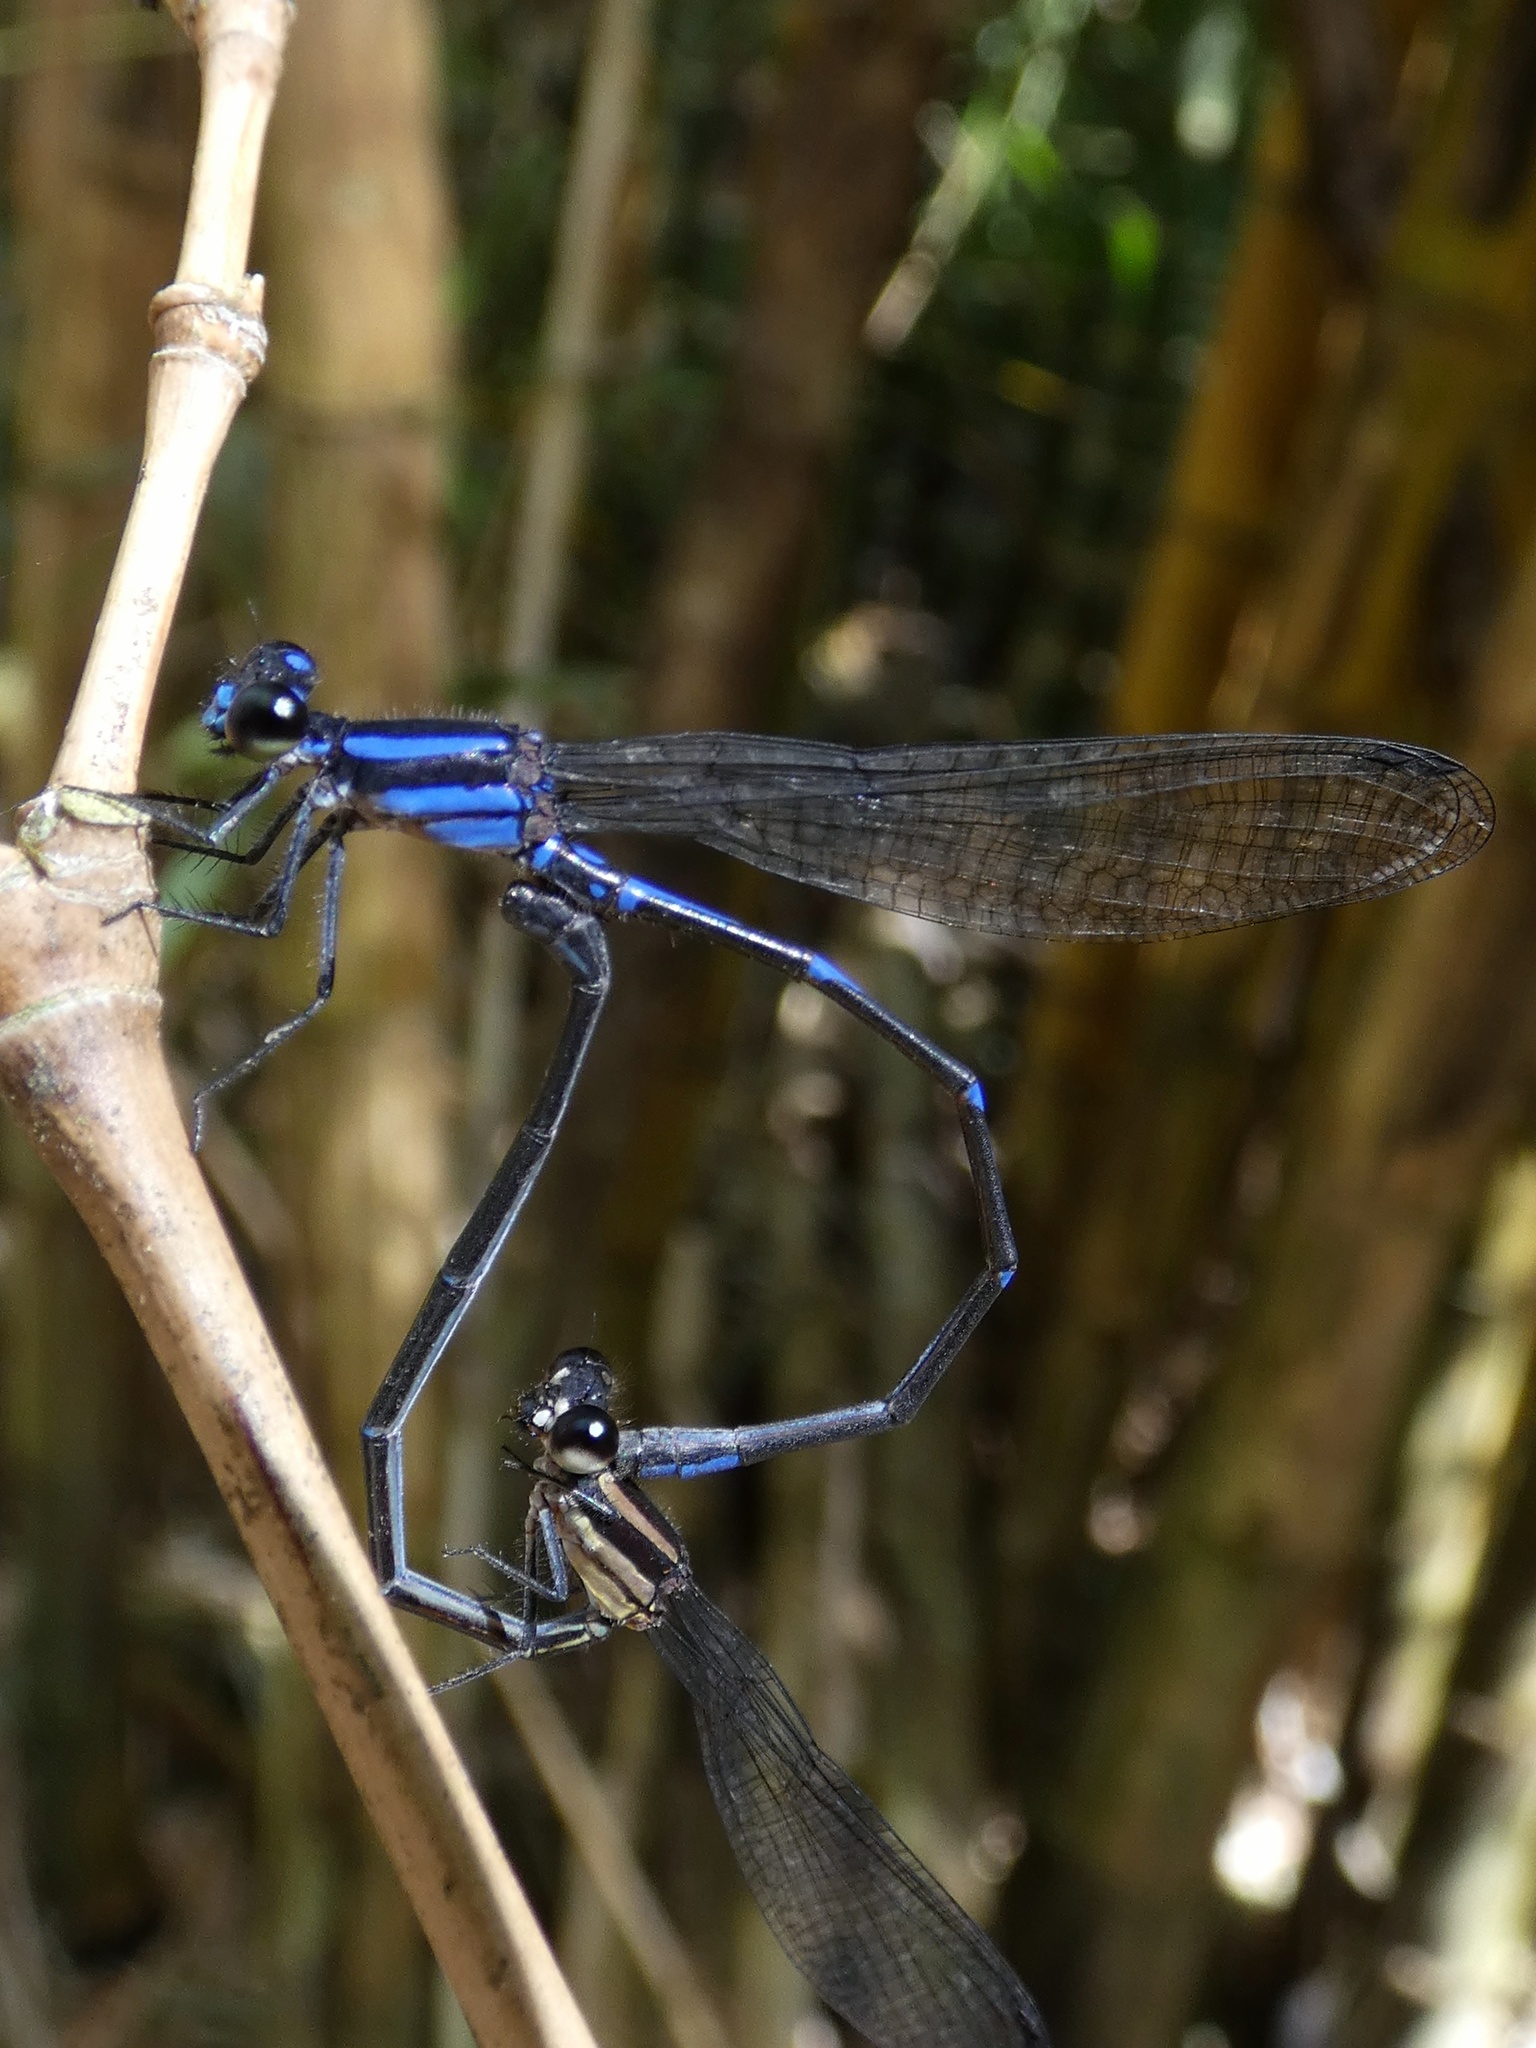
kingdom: Animalia
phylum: Arthropoda
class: Insecta
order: Odonata
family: Coenagrionidae
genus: Argia
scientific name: Argia oculata
